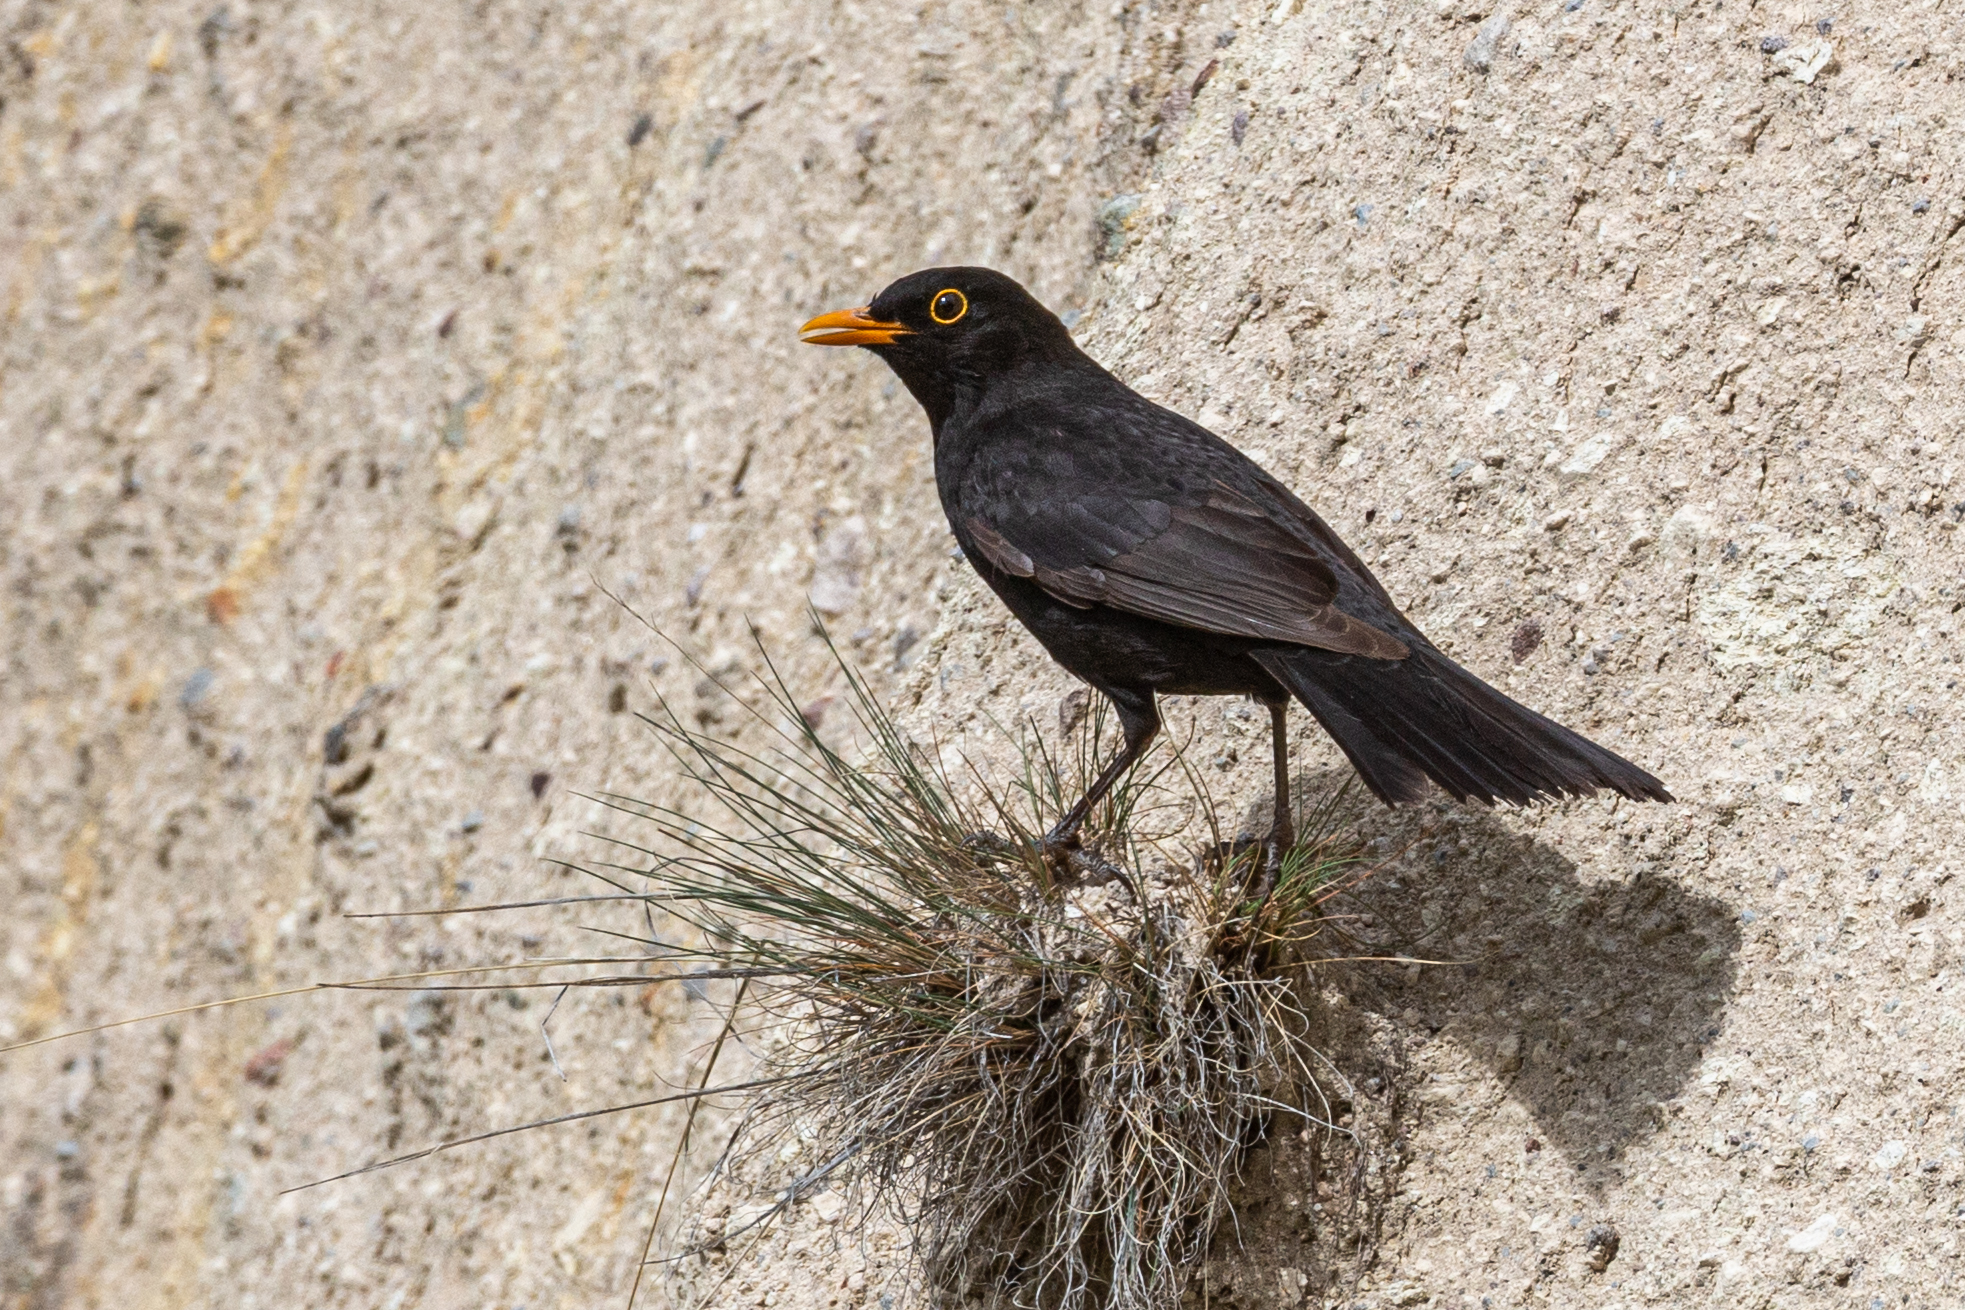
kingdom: Animalia
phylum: Chordata
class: Aves
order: Passeriformes
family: Turdidae
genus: Turdus
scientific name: Turdus merula
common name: Common blackbird
